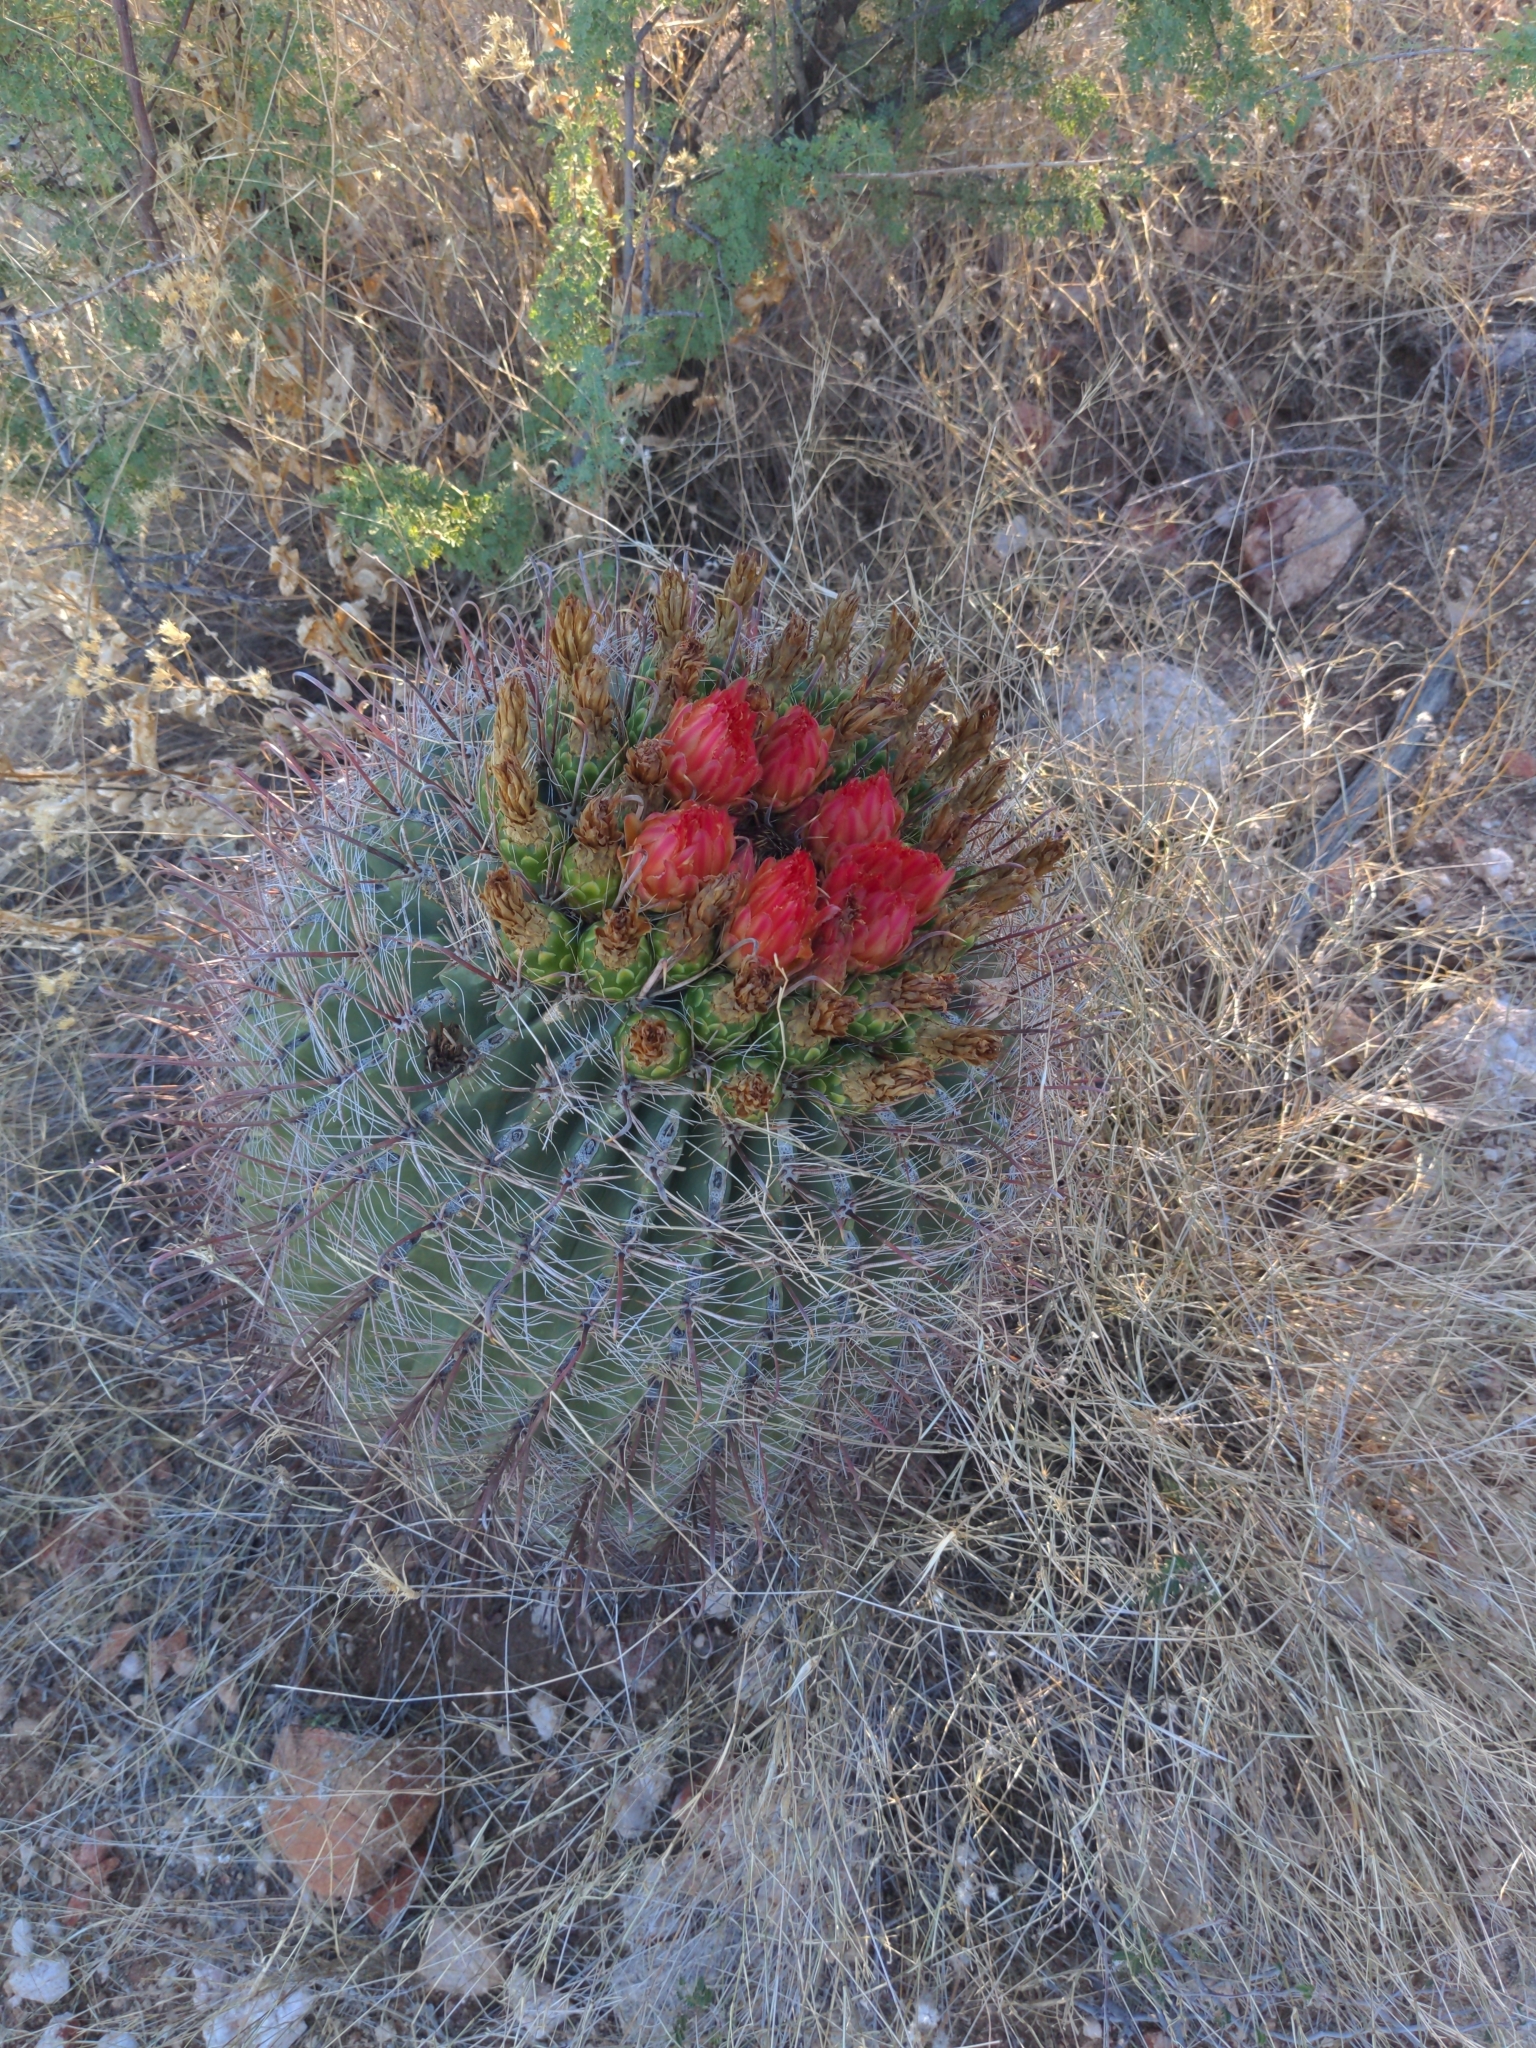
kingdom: Plantae
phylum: Tracheophyta
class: Magnoliopsida
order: Caryophyllales
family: Cactaceae
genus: Ferocactus
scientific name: Ferocactus wislizeni
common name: Candy barrel cactus
